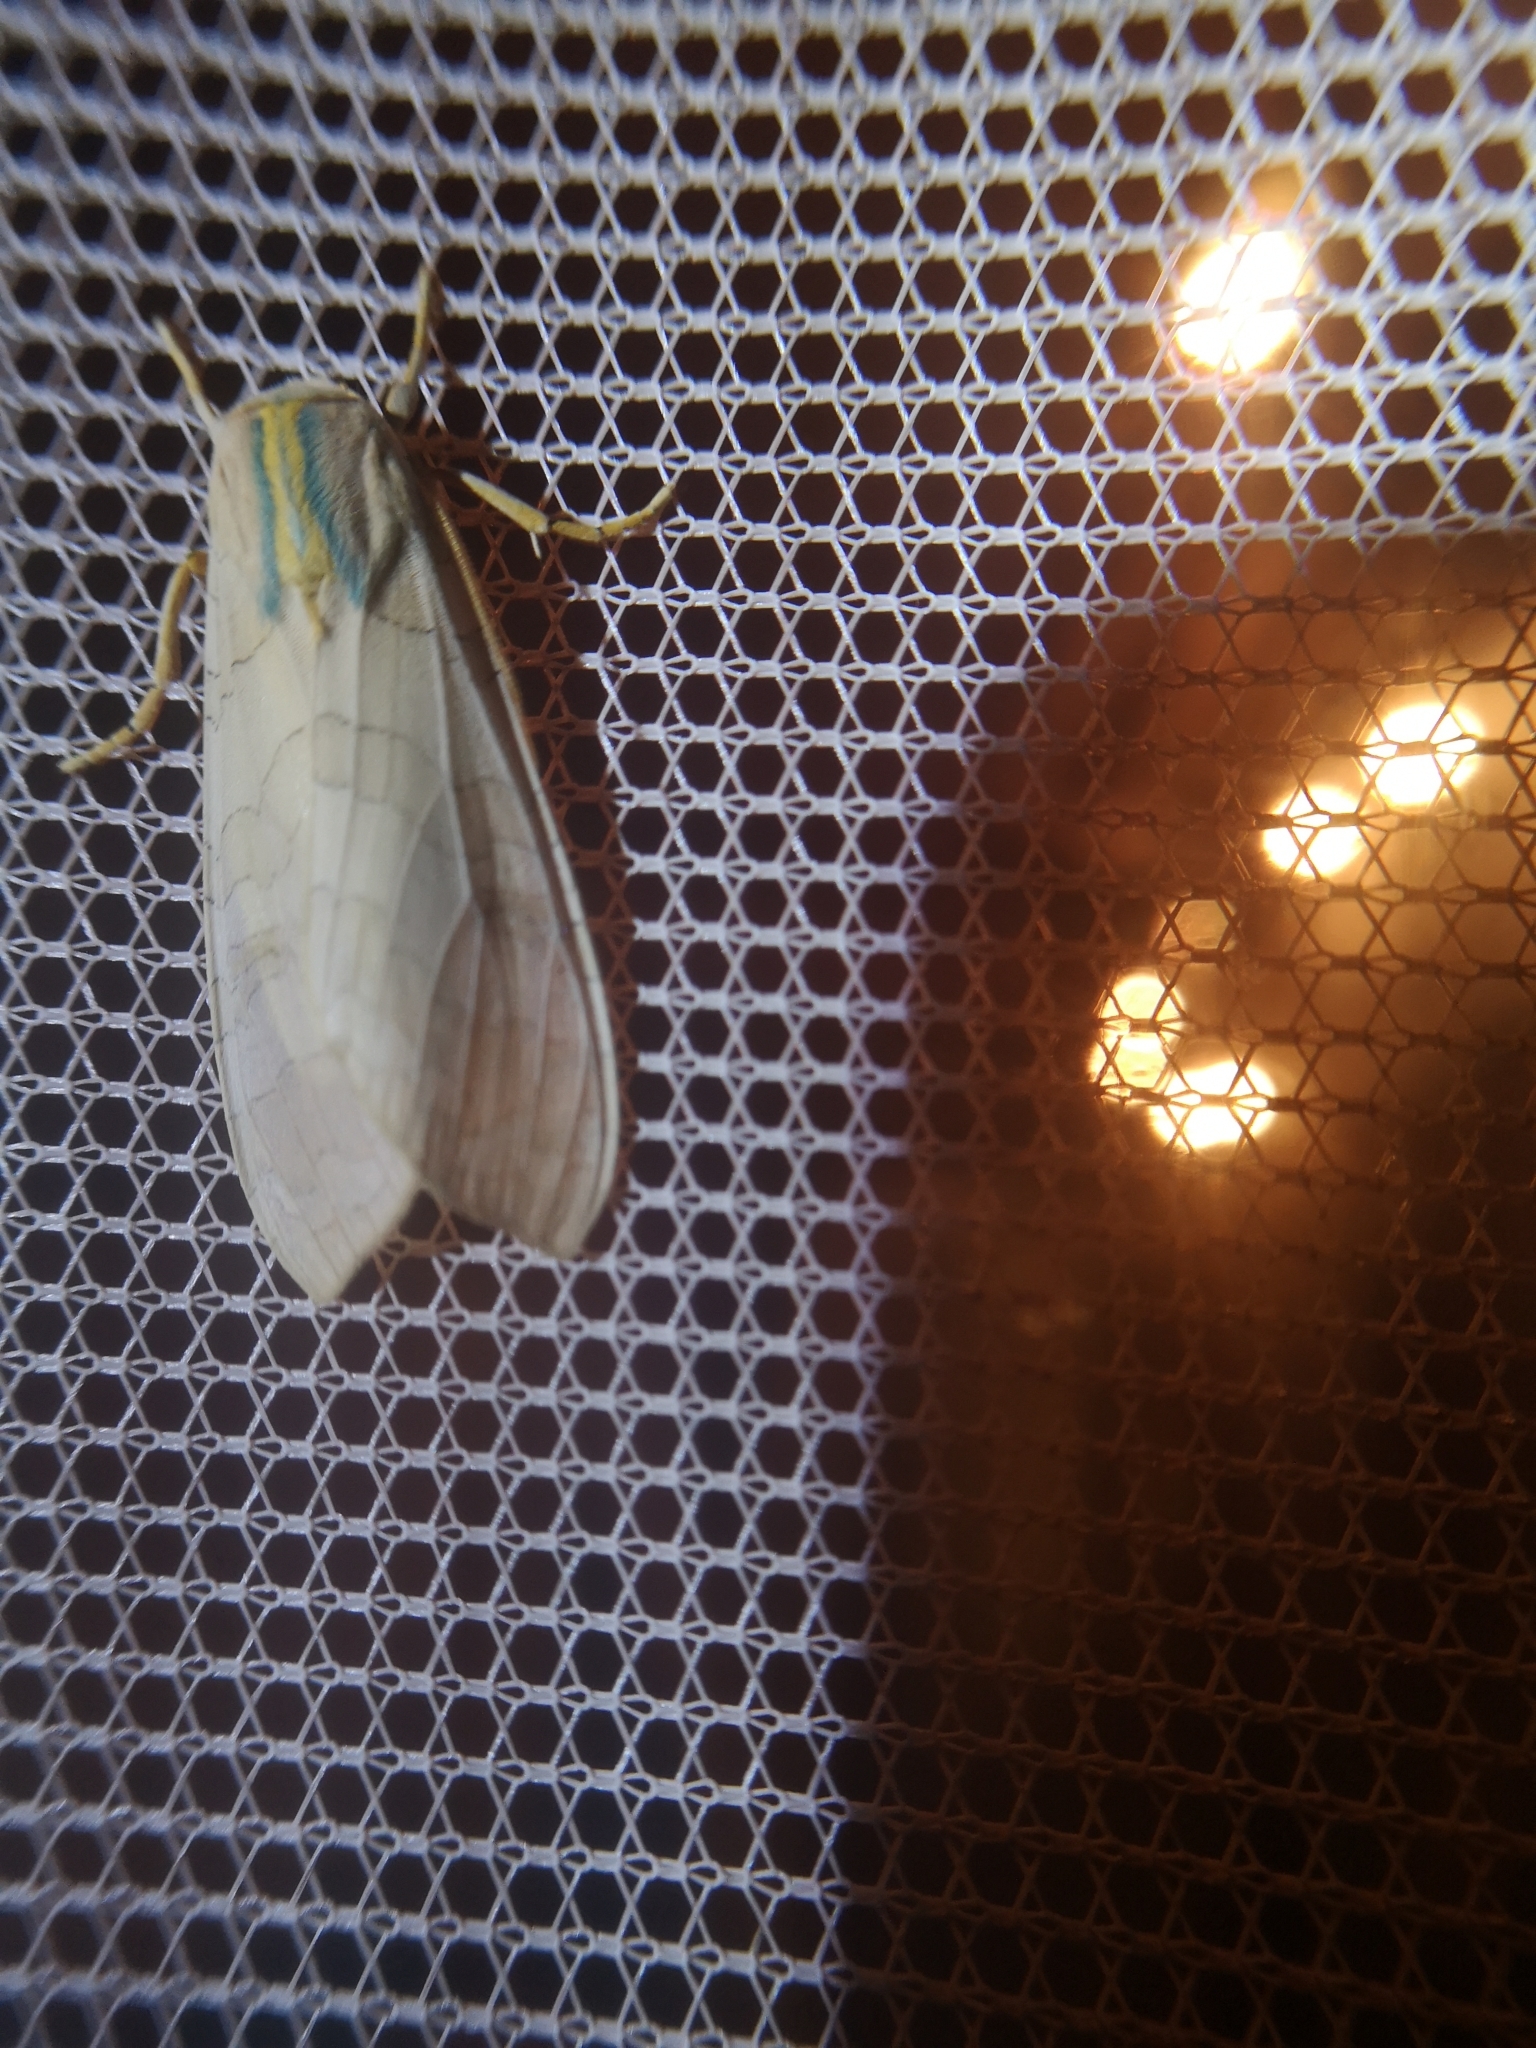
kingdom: Animalia
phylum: Arthropoda
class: Insecta
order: Lepidoptera
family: Erebidae
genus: Halysidota
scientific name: Halysidota tessellaris
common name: Banded tussock moth
